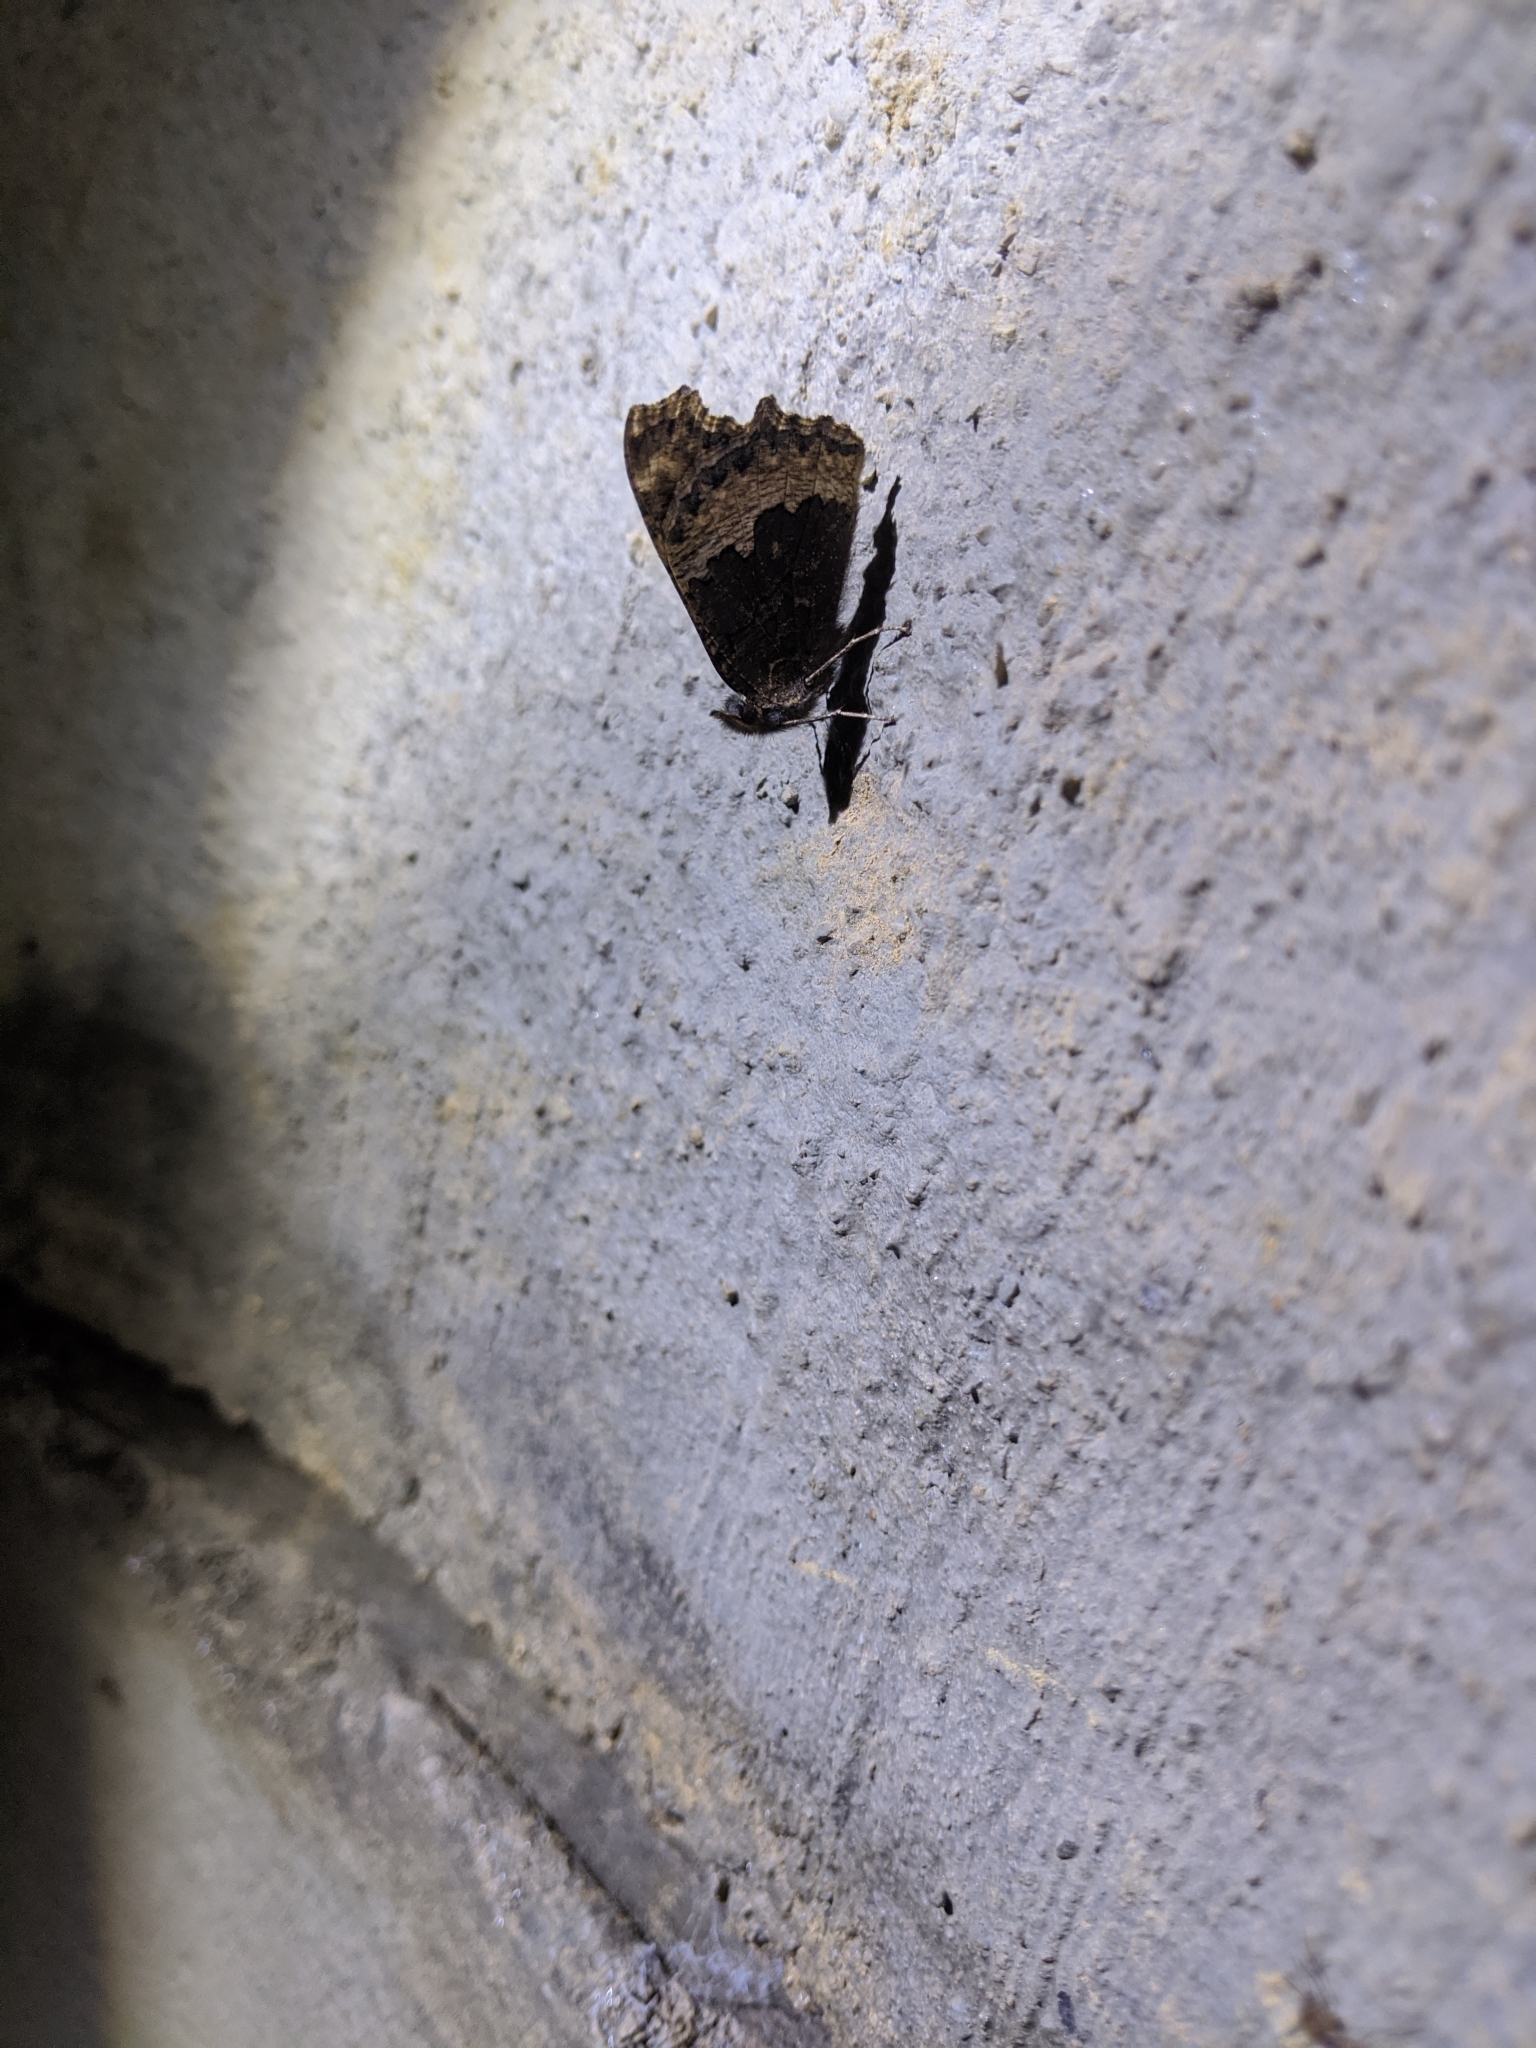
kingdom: Animalia
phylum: Arthropoda
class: Insecta
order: Lepidoptera
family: Nymphalidae
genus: Aglais
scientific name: Aglais urticae
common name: Small tortoiseshell
